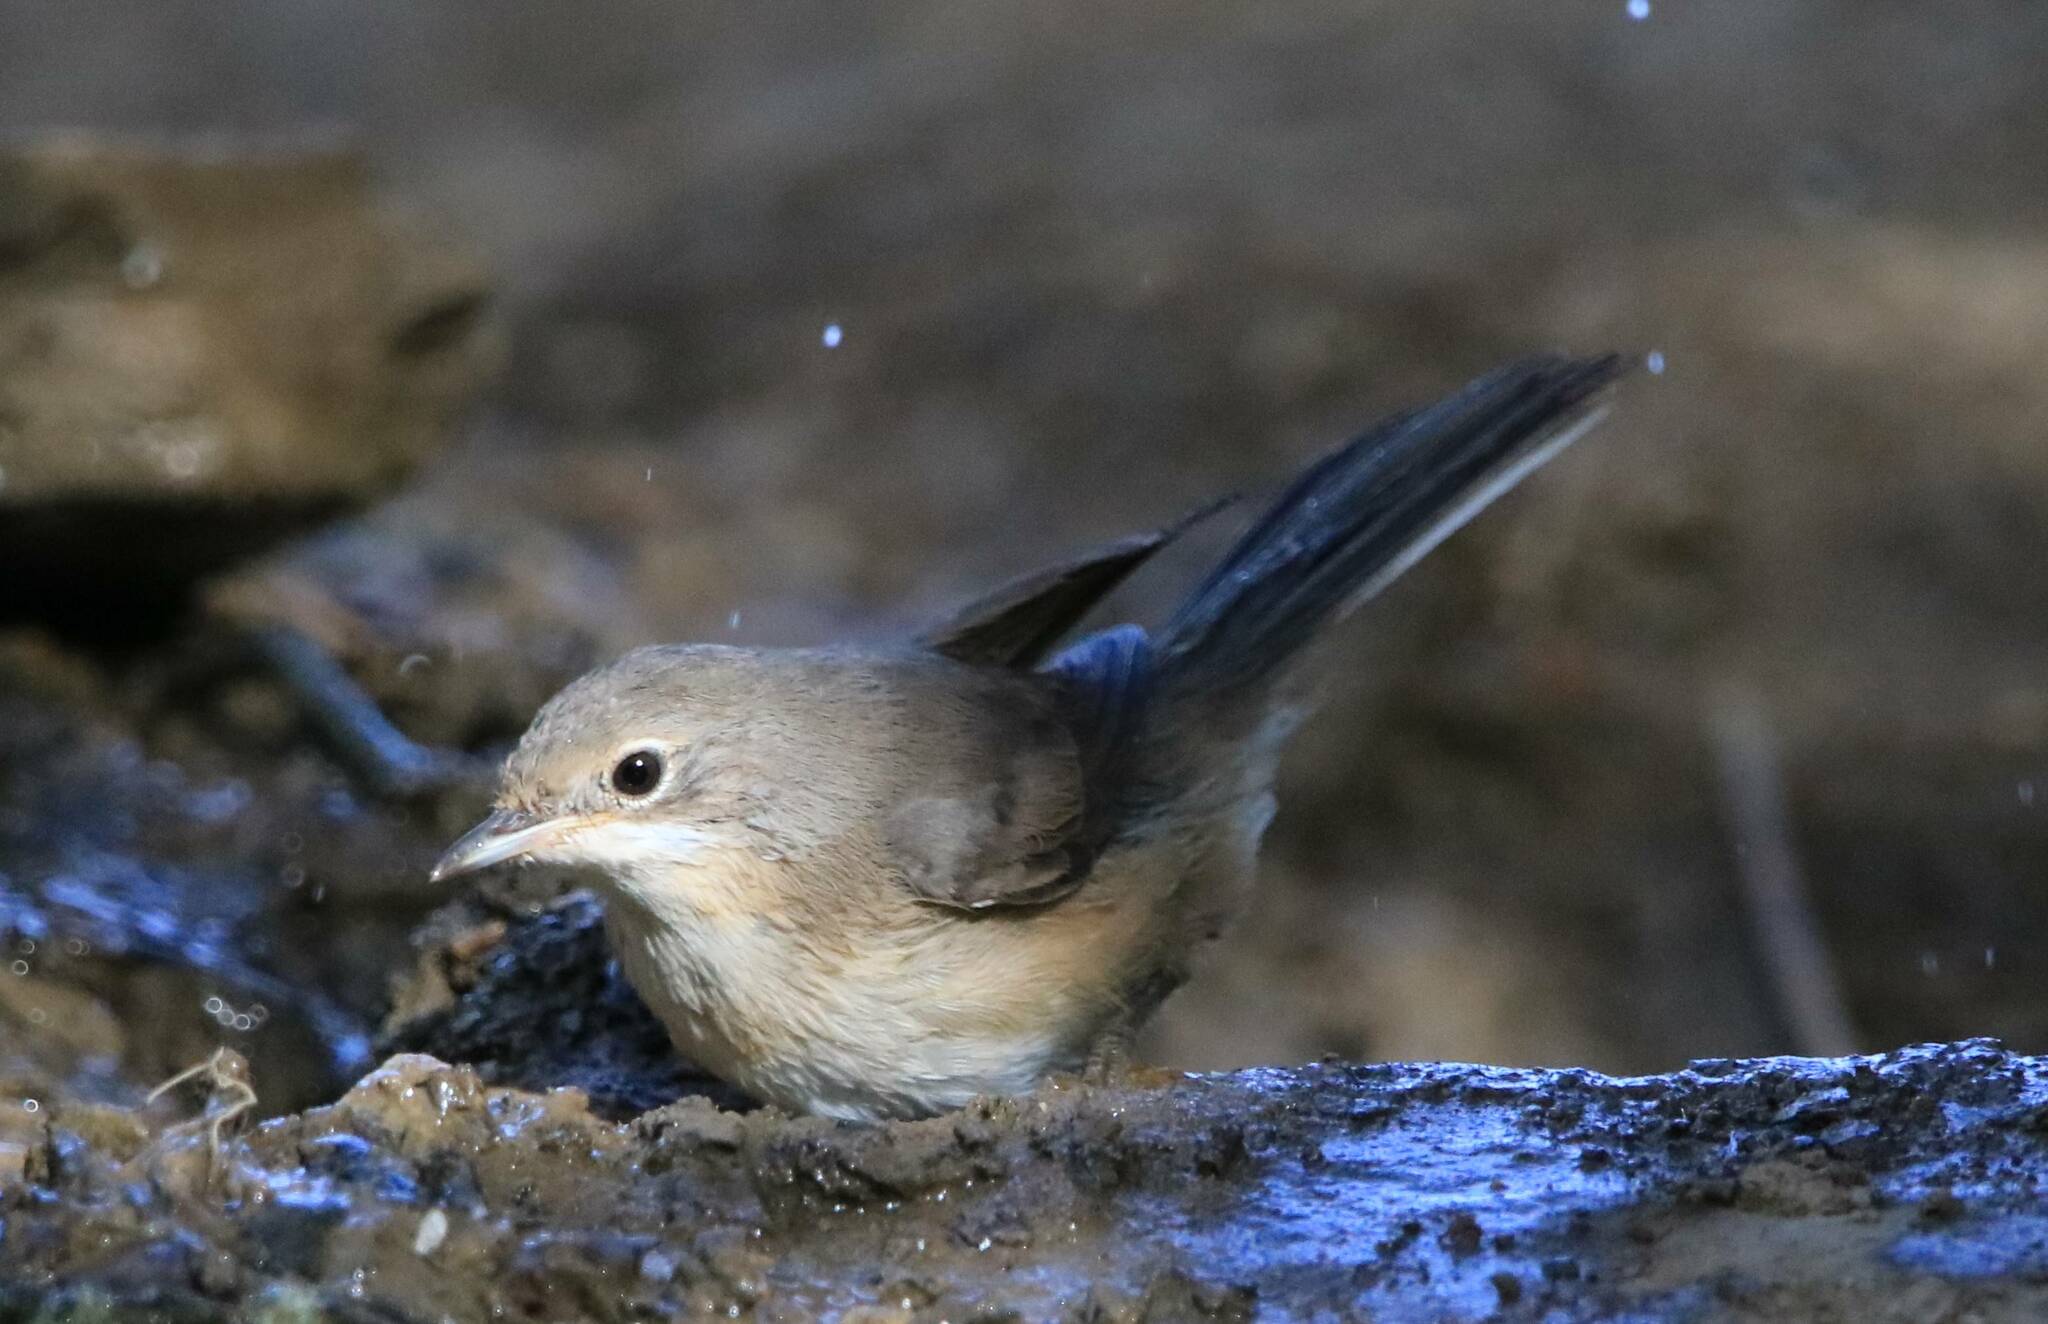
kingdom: Animalia
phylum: Chordata
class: Aves
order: Passeriformes
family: Sylviidae
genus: Curruca
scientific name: Curruca subalpina
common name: Moltoni's warbler
